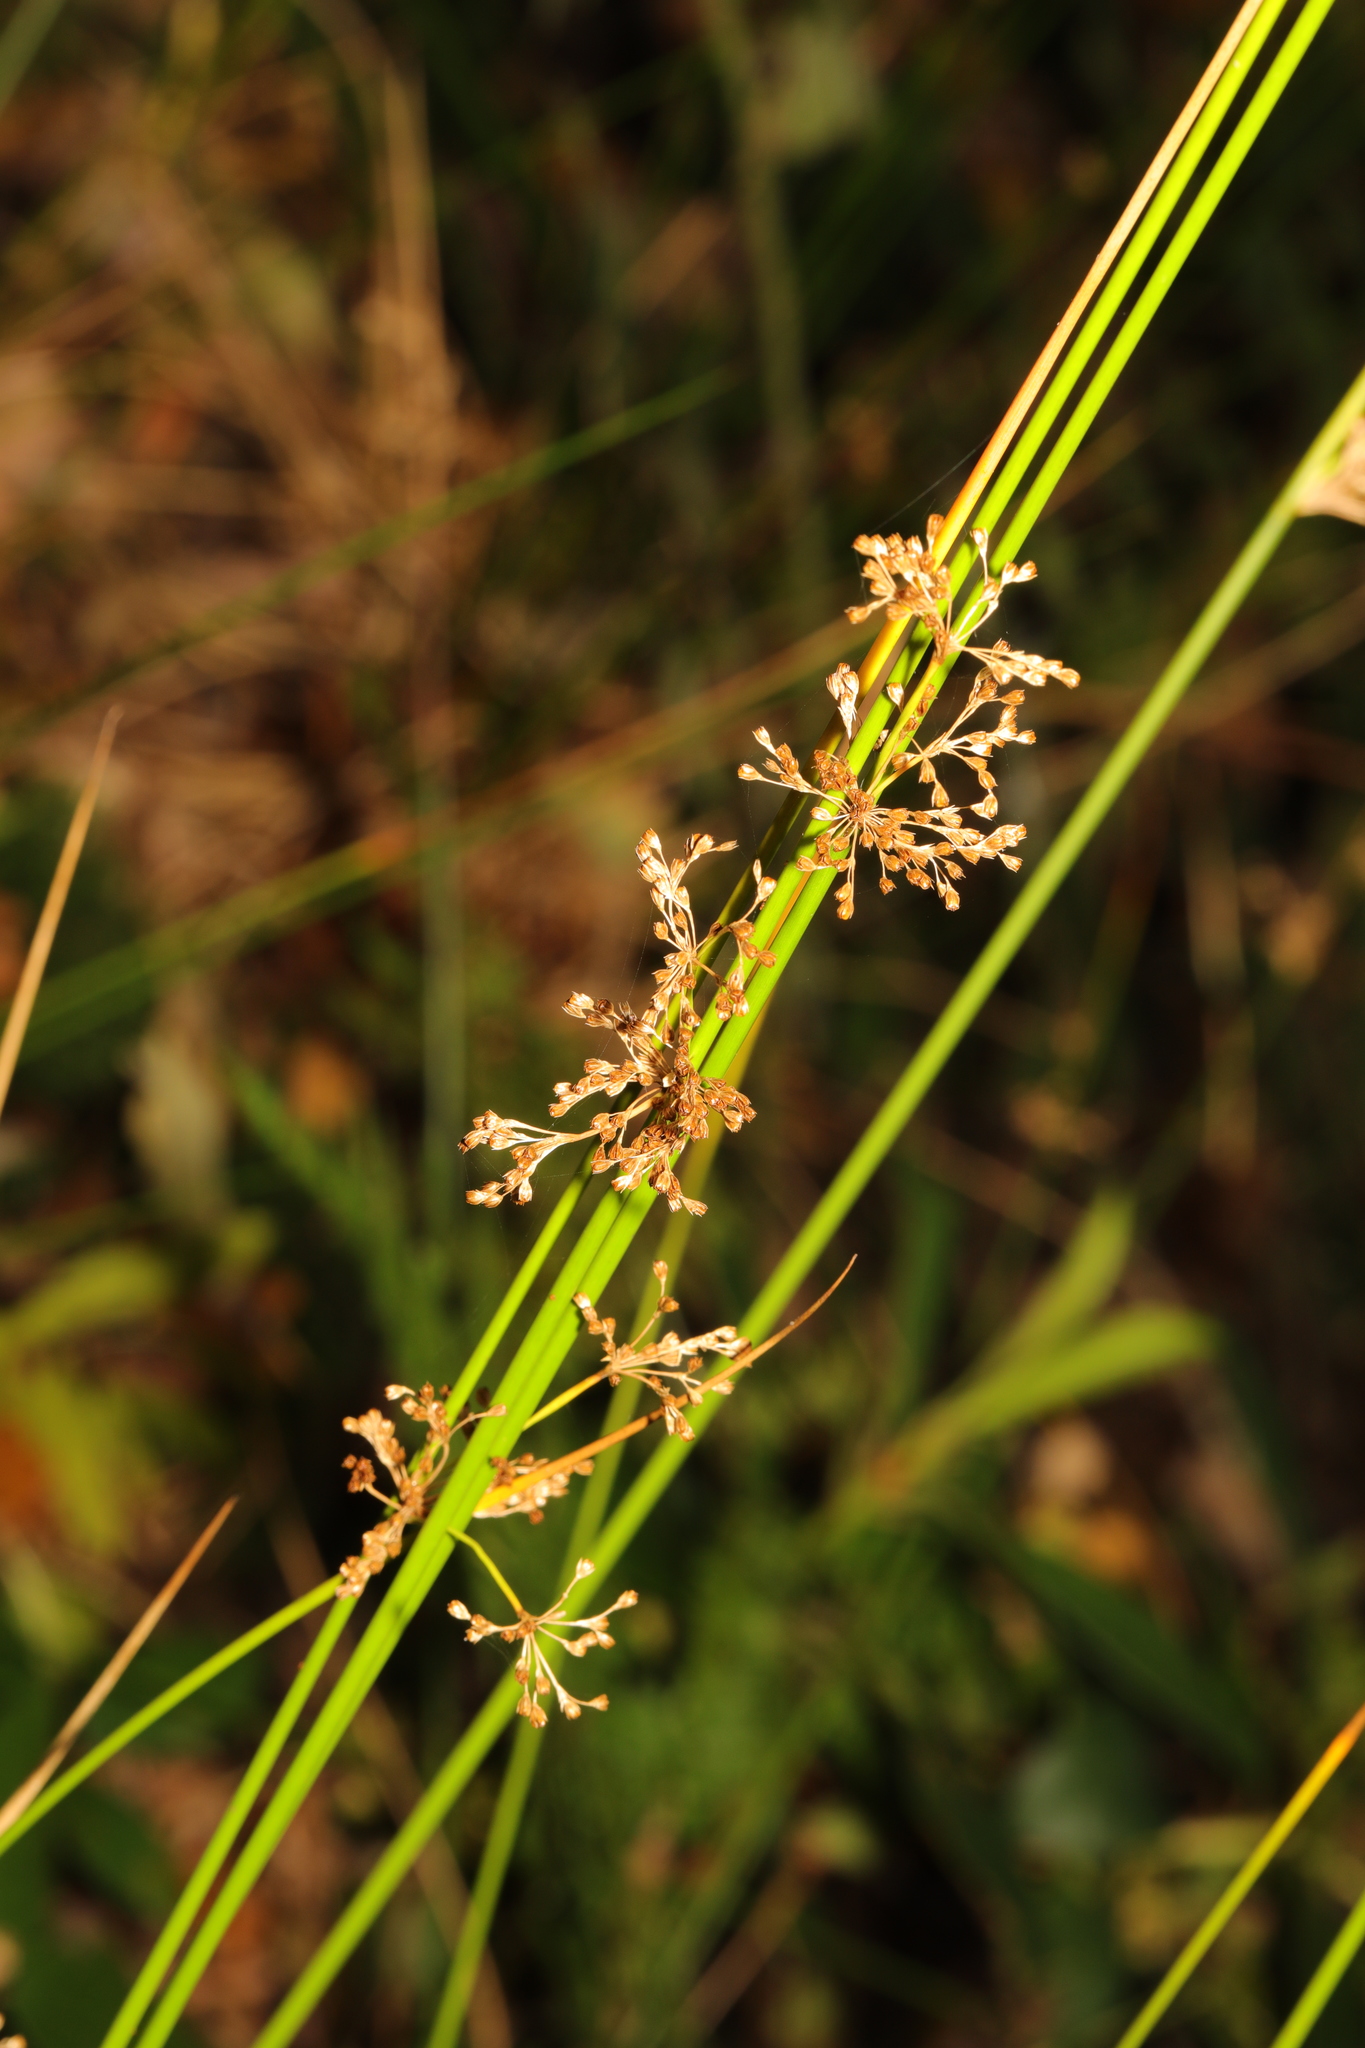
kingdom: Plantae
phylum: Tracheophyta
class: Liliopsida
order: Poales
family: Juncaceae
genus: Juncus
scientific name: Juncus effusus
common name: Soft rush
